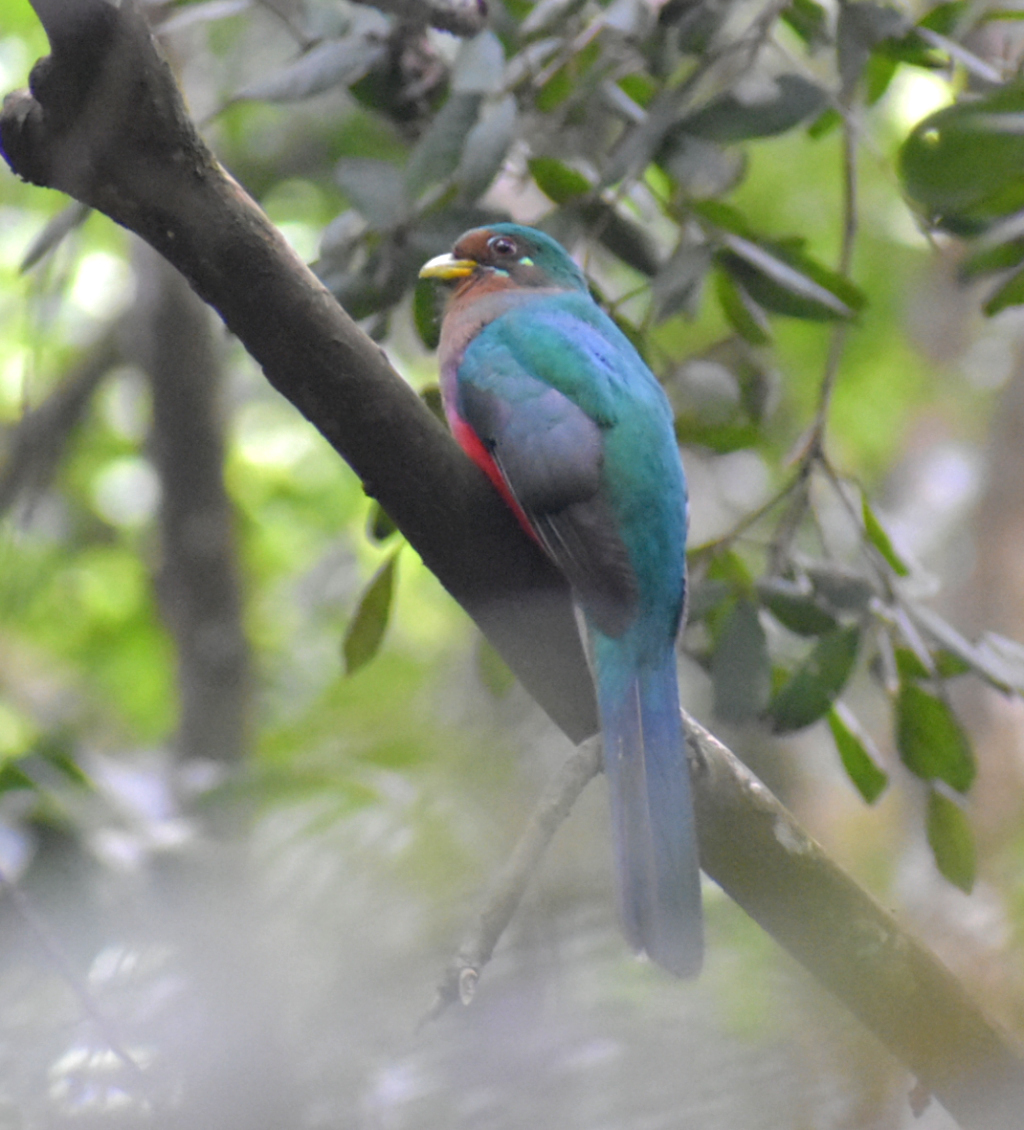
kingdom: Animalia
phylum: Chordata
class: Aves
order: Trogoniformes
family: Trogonidae
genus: Apaloderma
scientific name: Apaloderma narina
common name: Narina trogon
